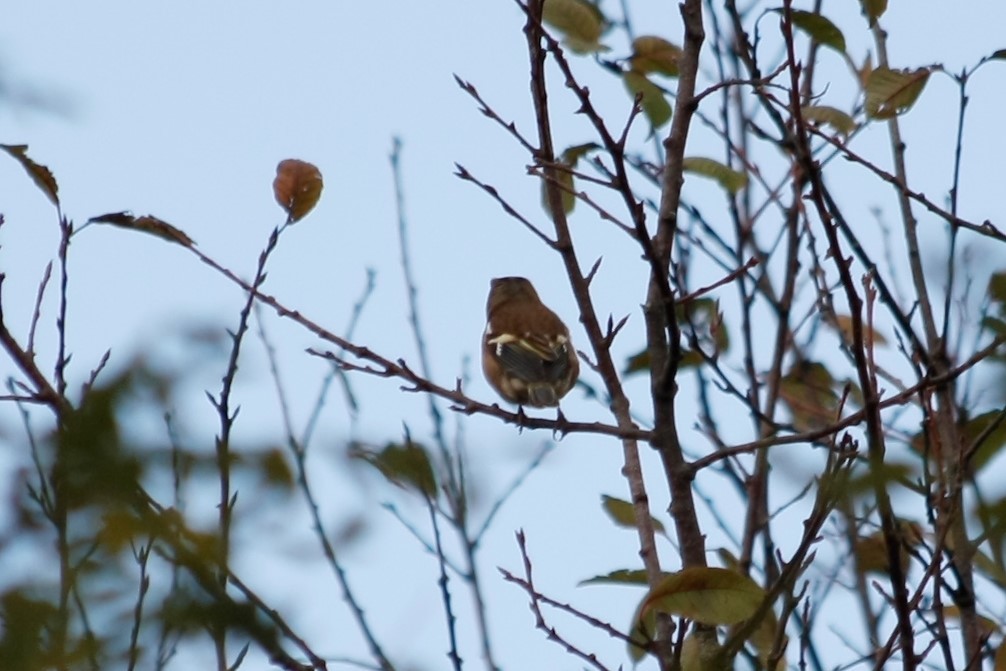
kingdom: Animalia
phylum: Chordata
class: Aves
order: Passeriformes
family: Fringillidae
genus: Fringilla
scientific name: Fringilla coelebs
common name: Common chaffinch
